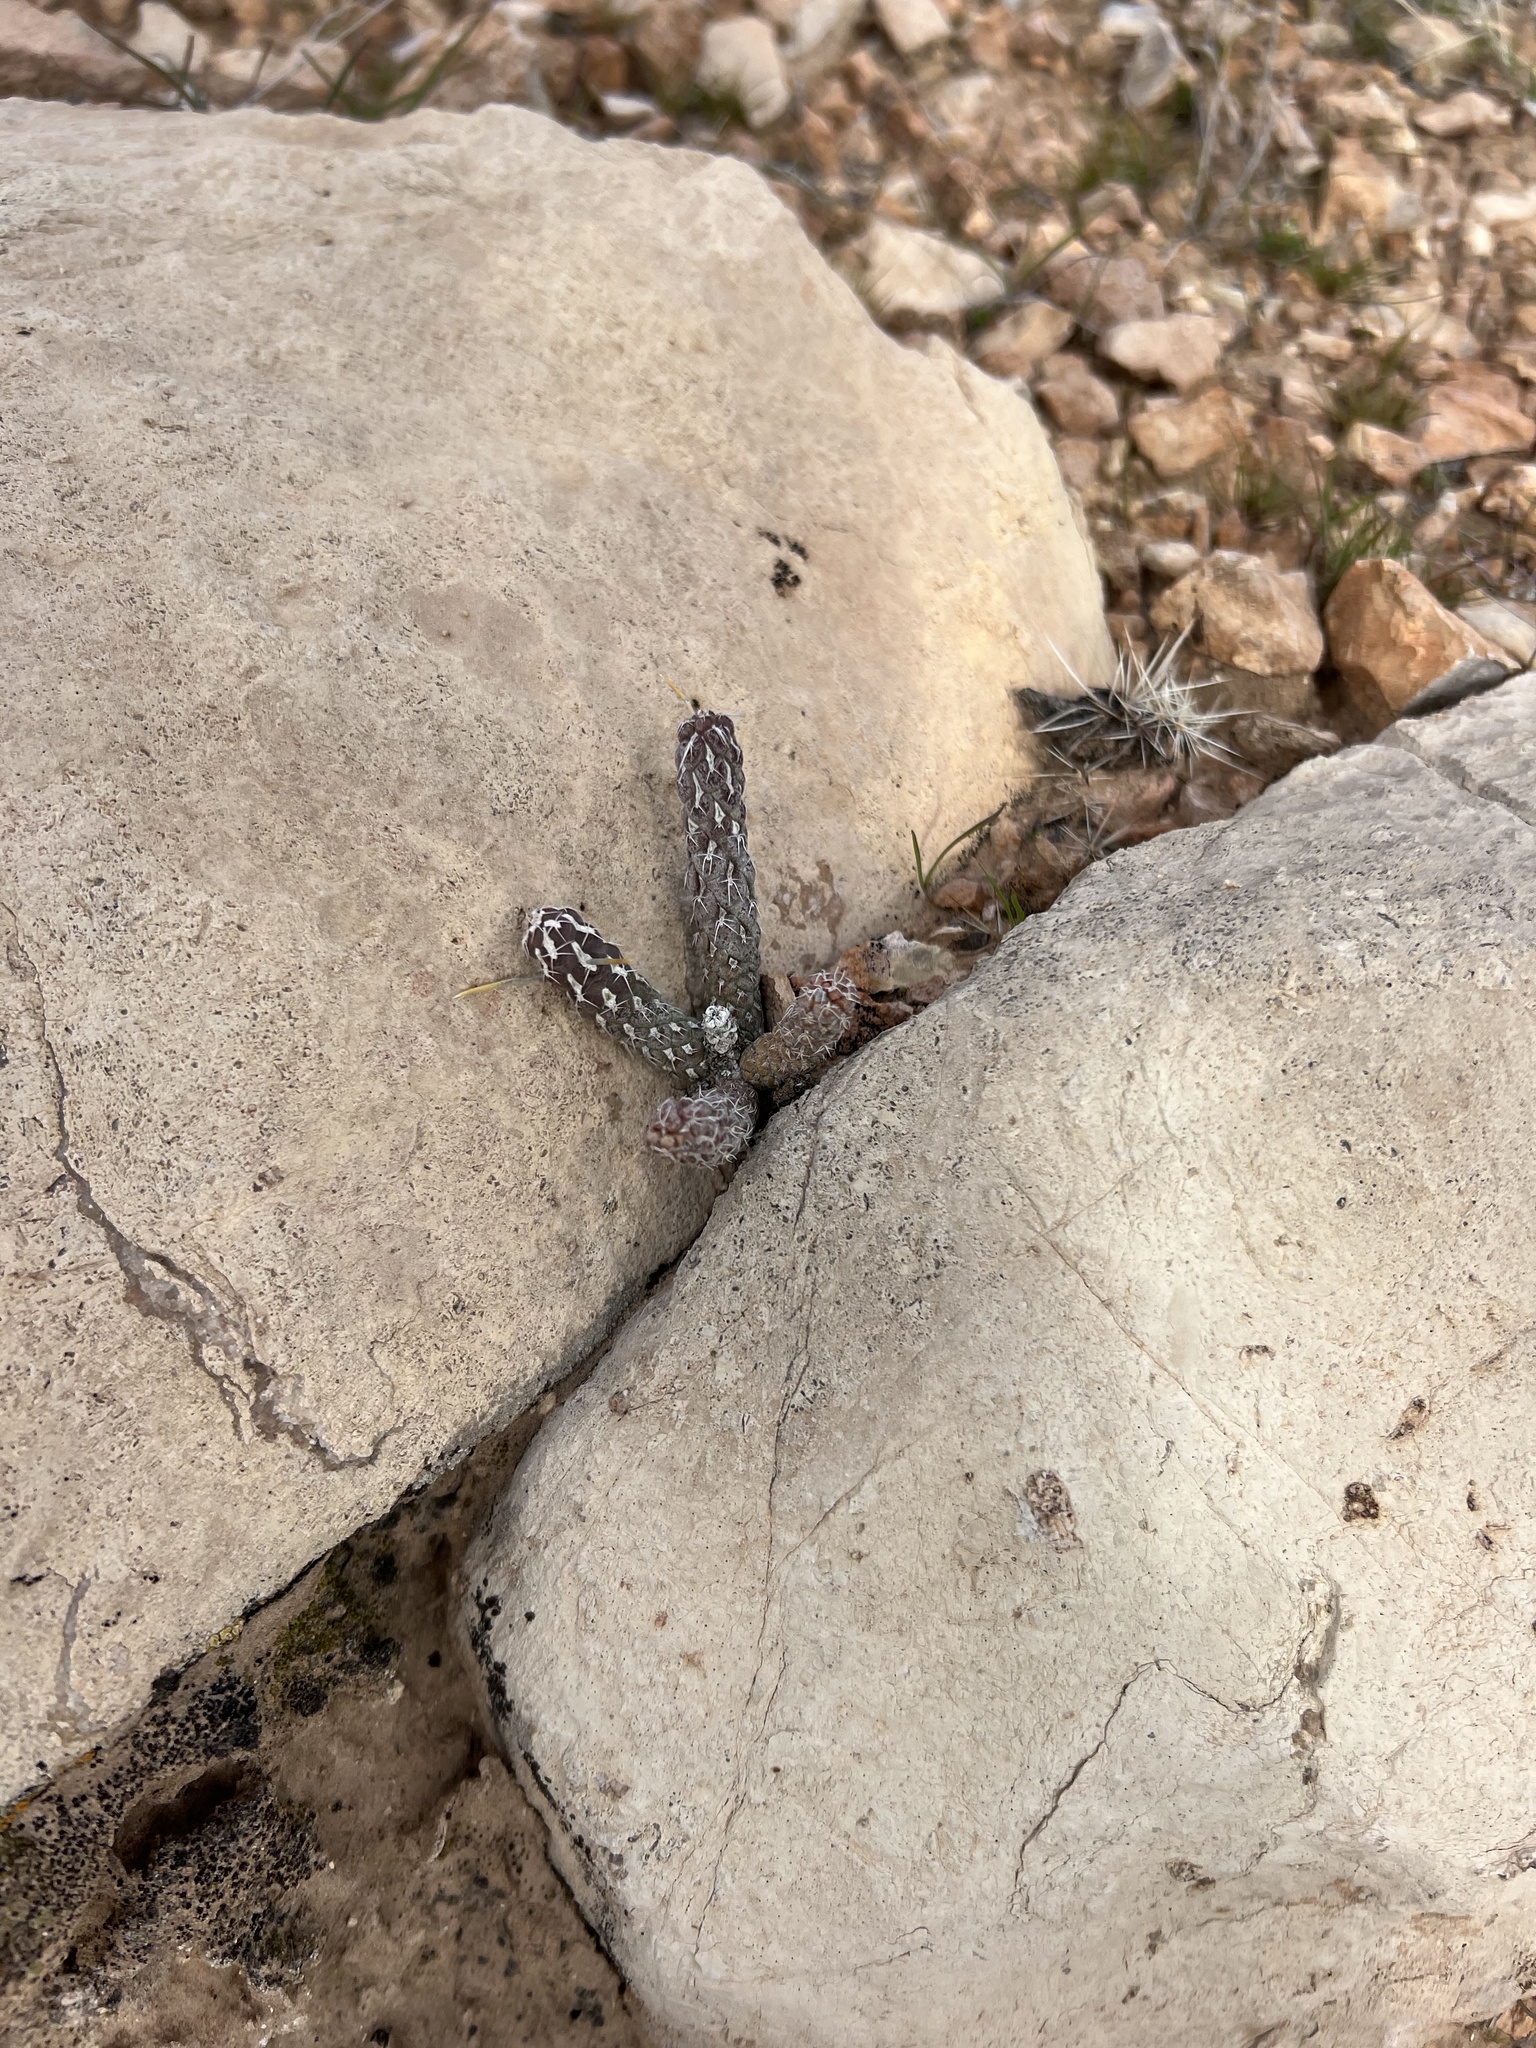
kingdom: Plantae
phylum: Tracheophyta
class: Magnoliopsida
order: Caryophyllales
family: Cactaceae
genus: Cylindropuntia
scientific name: Cylindropuntia ramosissima
